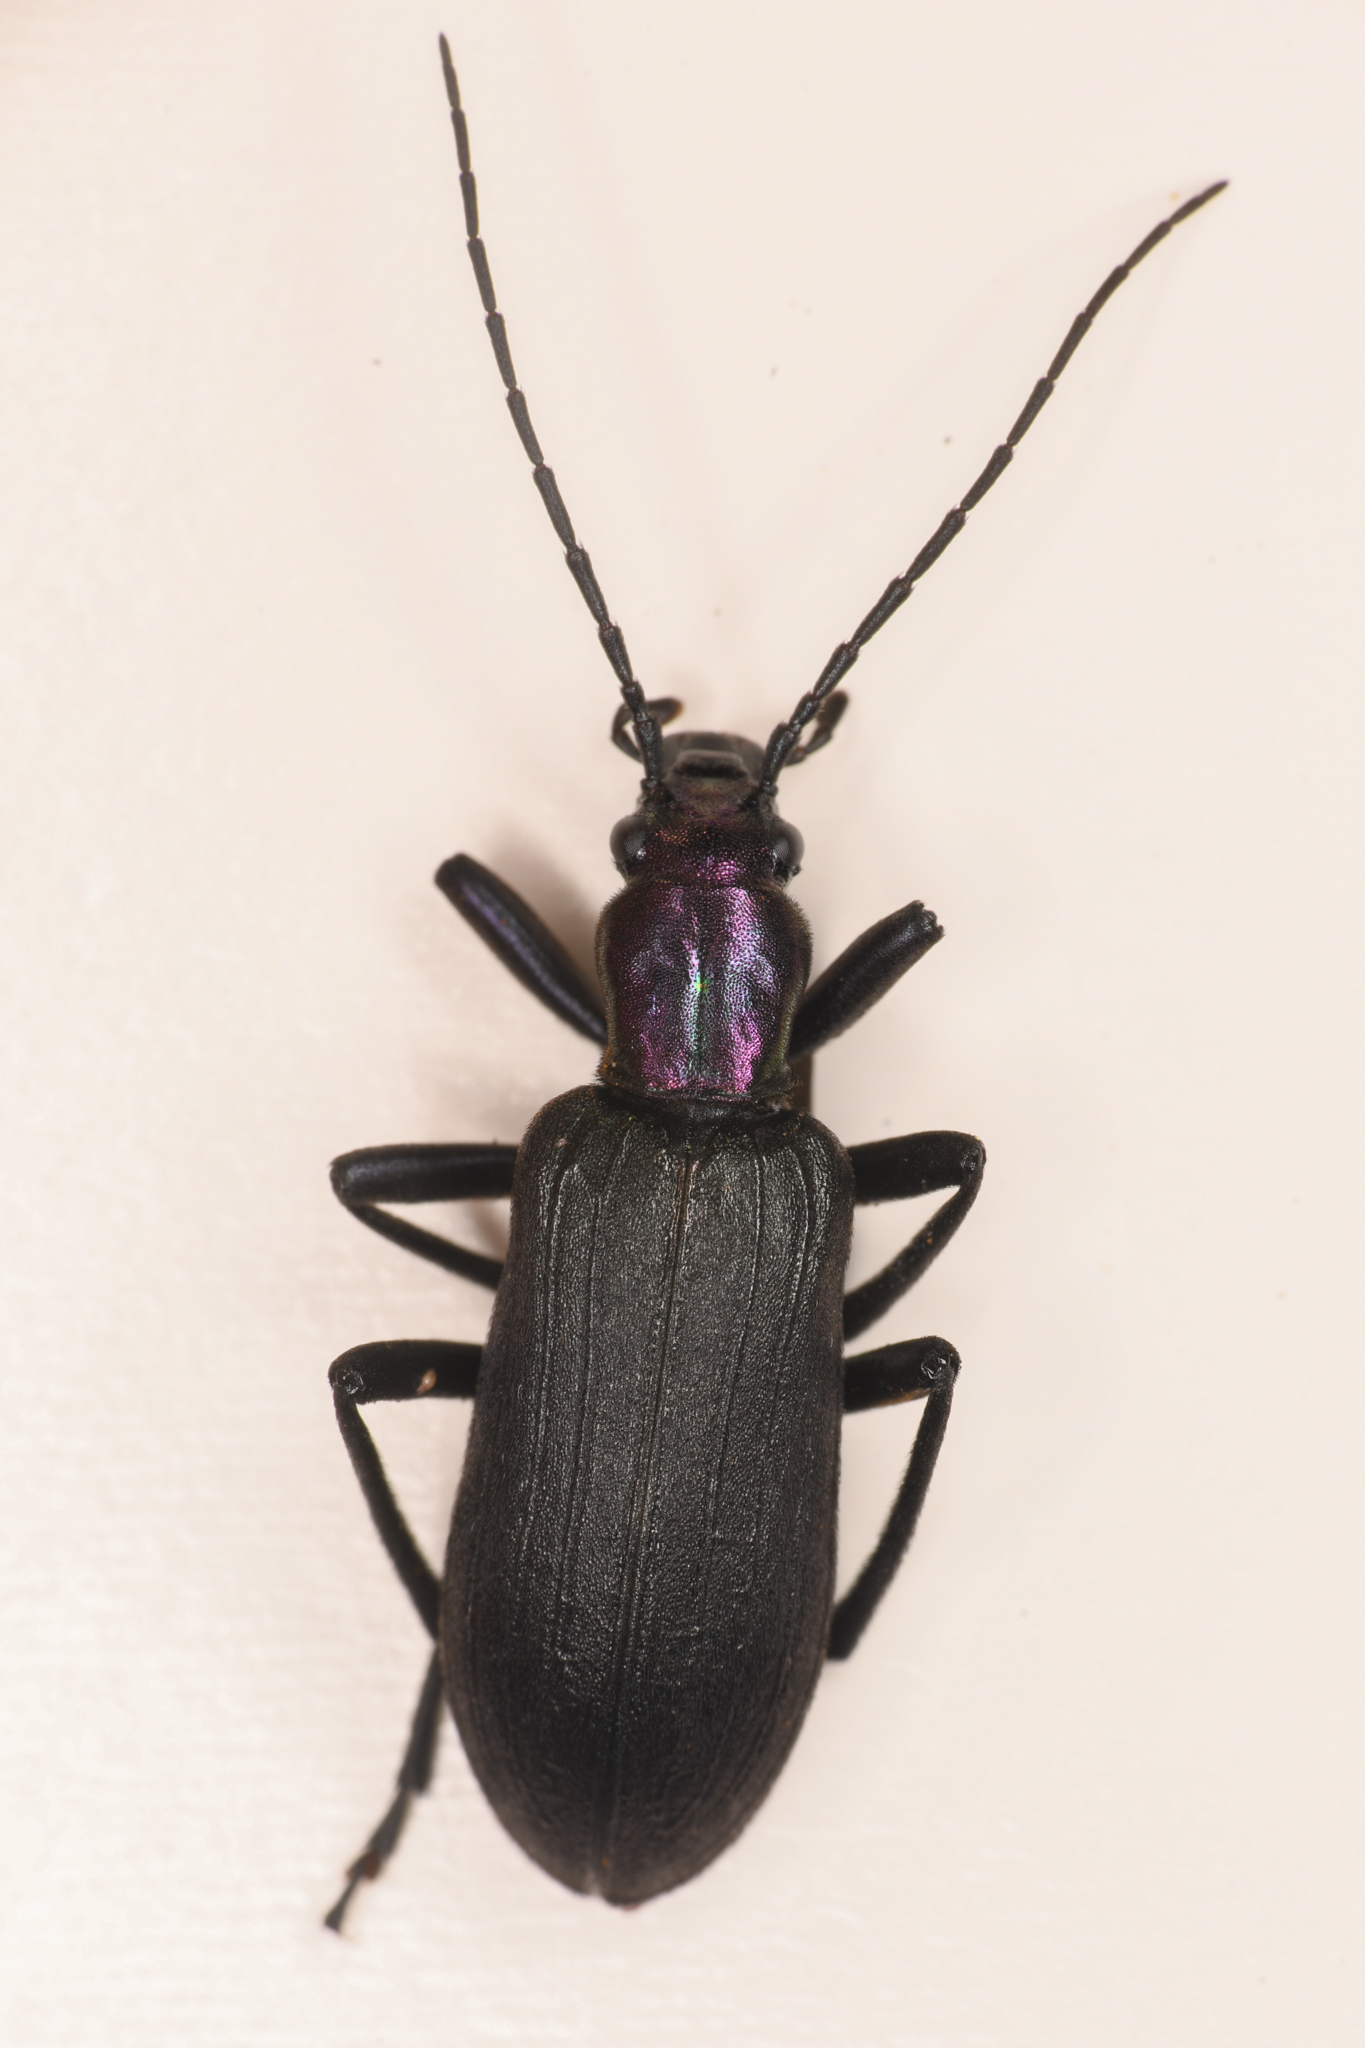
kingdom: Animalia
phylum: Arthropoda
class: Insecta
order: Coleoptera
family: Oedemeridae
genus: Ditylus
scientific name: Ditylus gracilis
